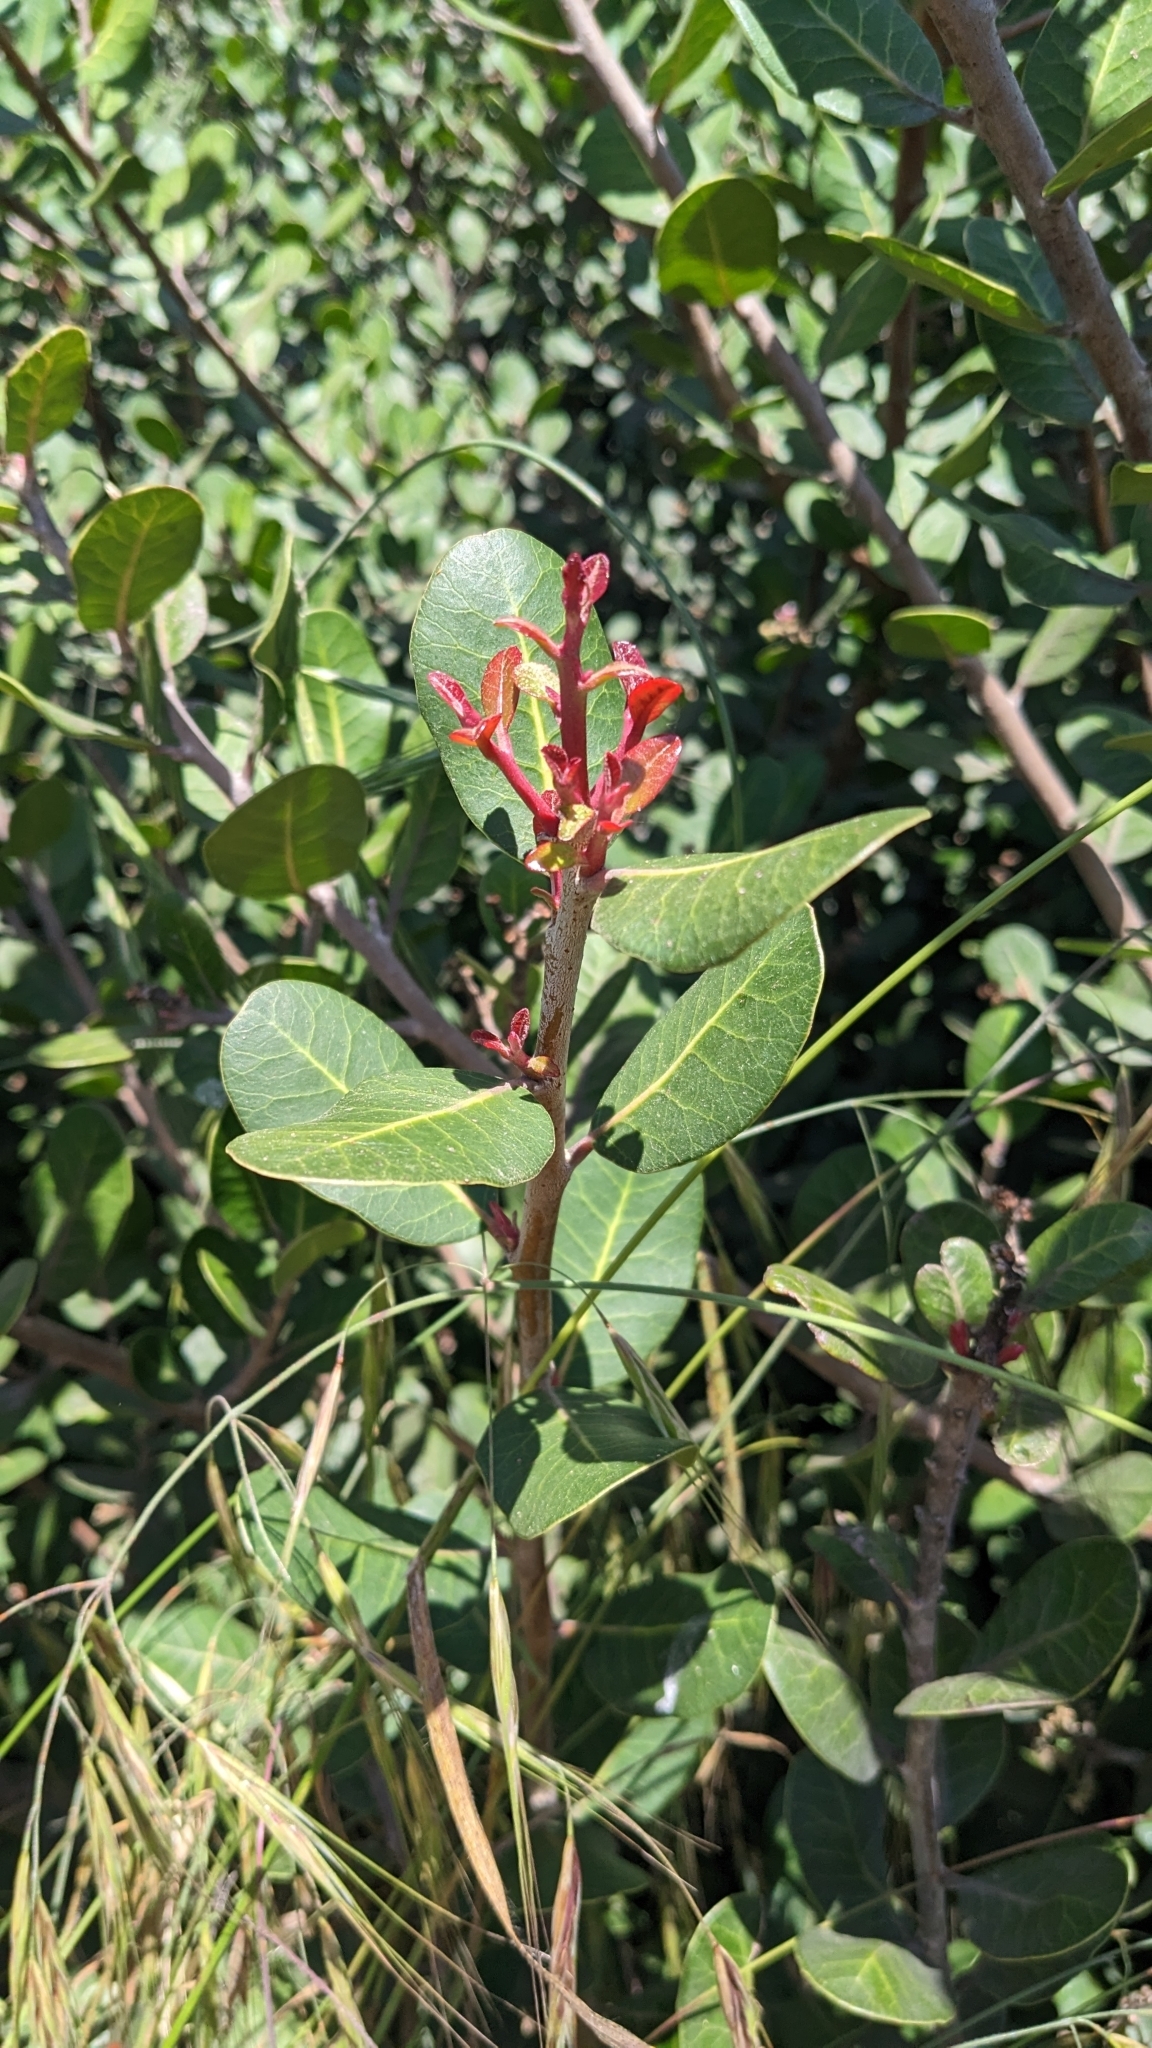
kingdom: Plantae
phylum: Tracheophyta
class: Magnoliopsida
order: Sapindales
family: Anacardiaceae
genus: Rhus
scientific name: Rhus integrifolia
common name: Lemonade sumac
